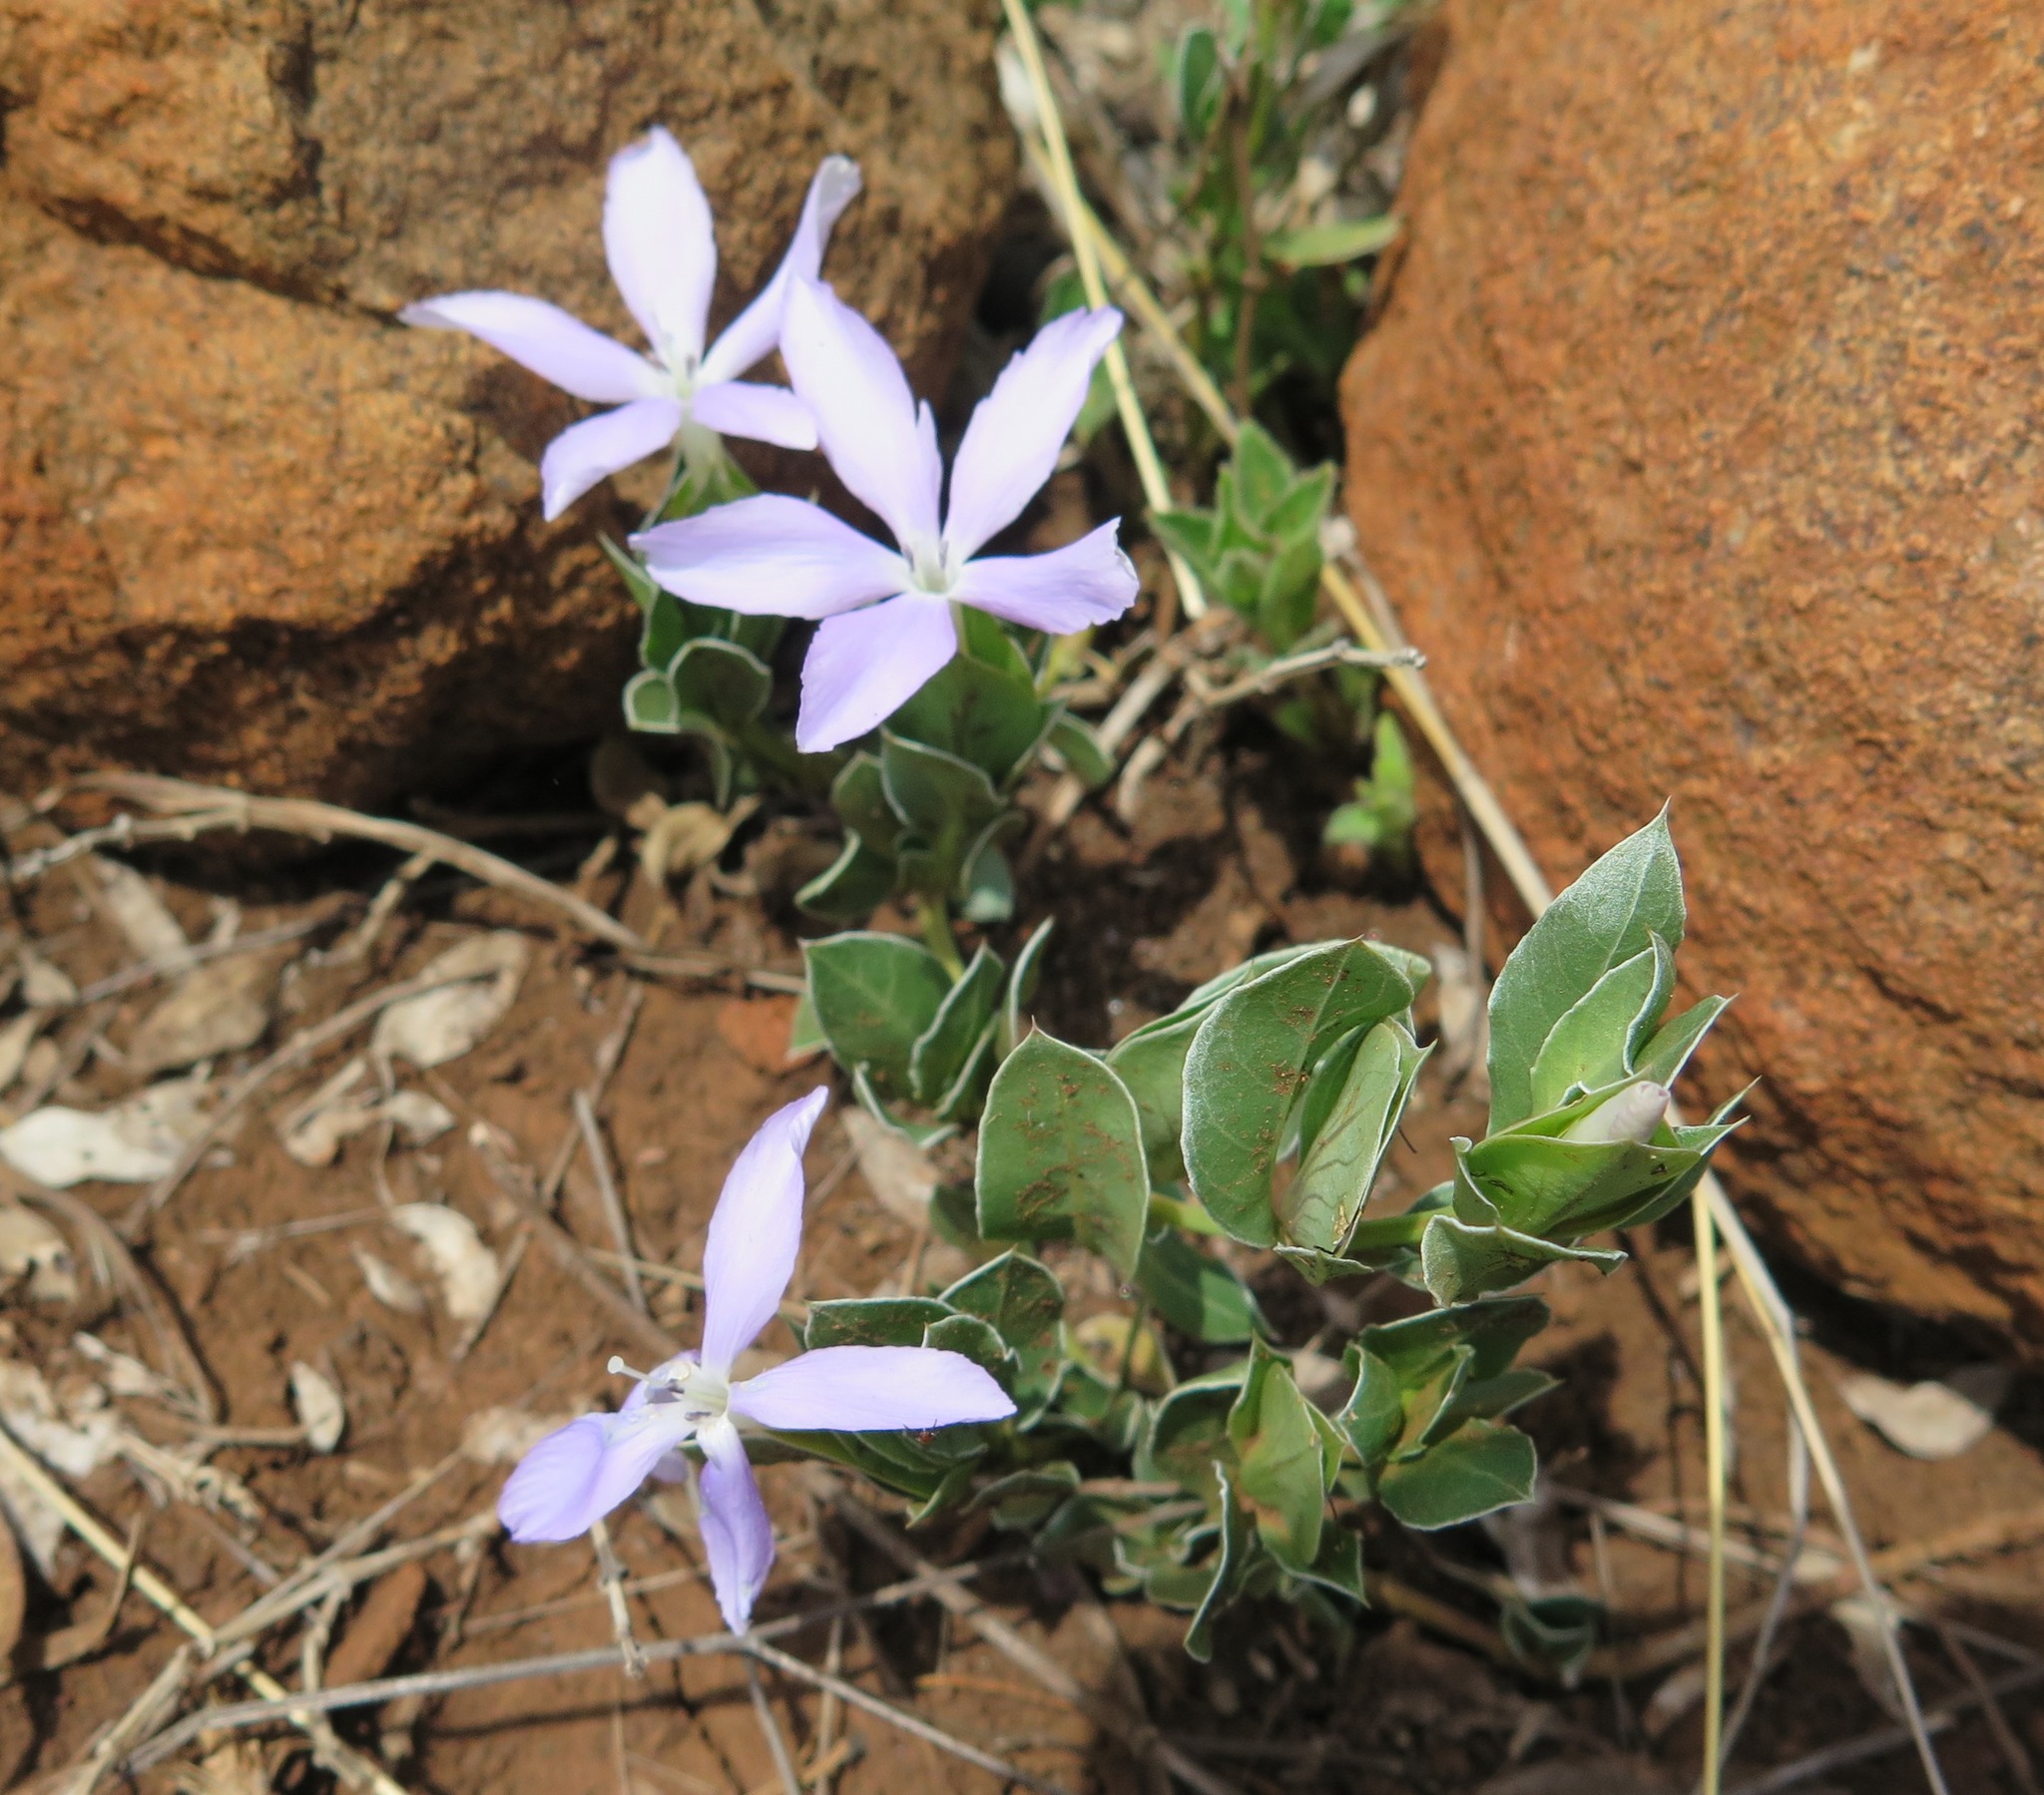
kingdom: Plantae
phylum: Tracheophyta
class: Magnoliopsida
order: Lamiales
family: Acanthaceae
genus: Barleria
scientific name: Barleria argillicola
